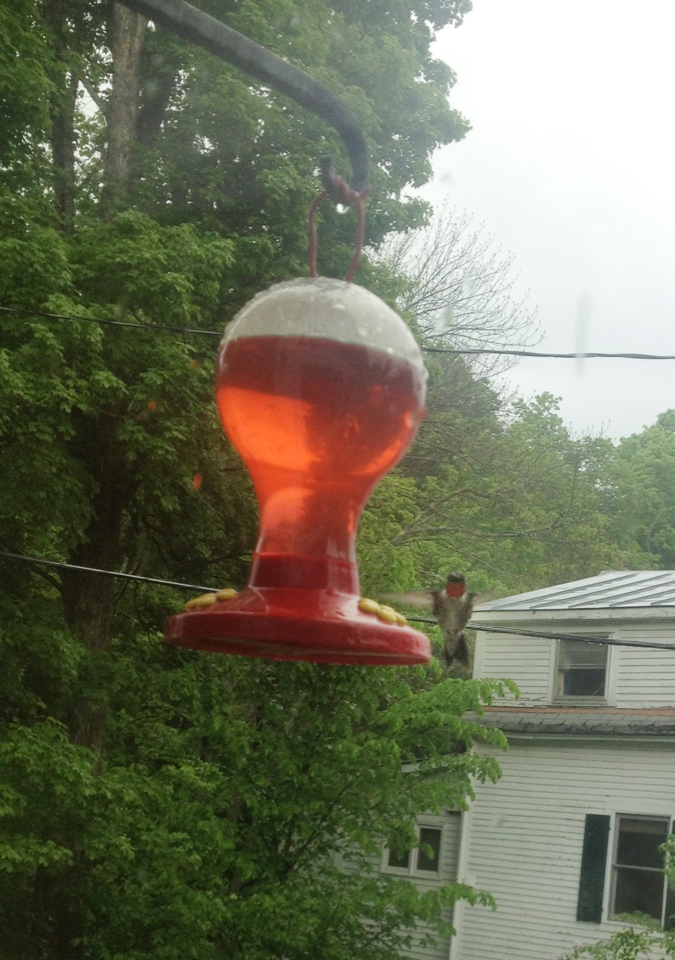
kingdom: Animalia
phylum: Chordata
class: Aves
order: Apodiformes
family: Trochilidae
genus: Archilochus
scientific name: Archilochus colubris
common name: Ruby-throated hummingbird
